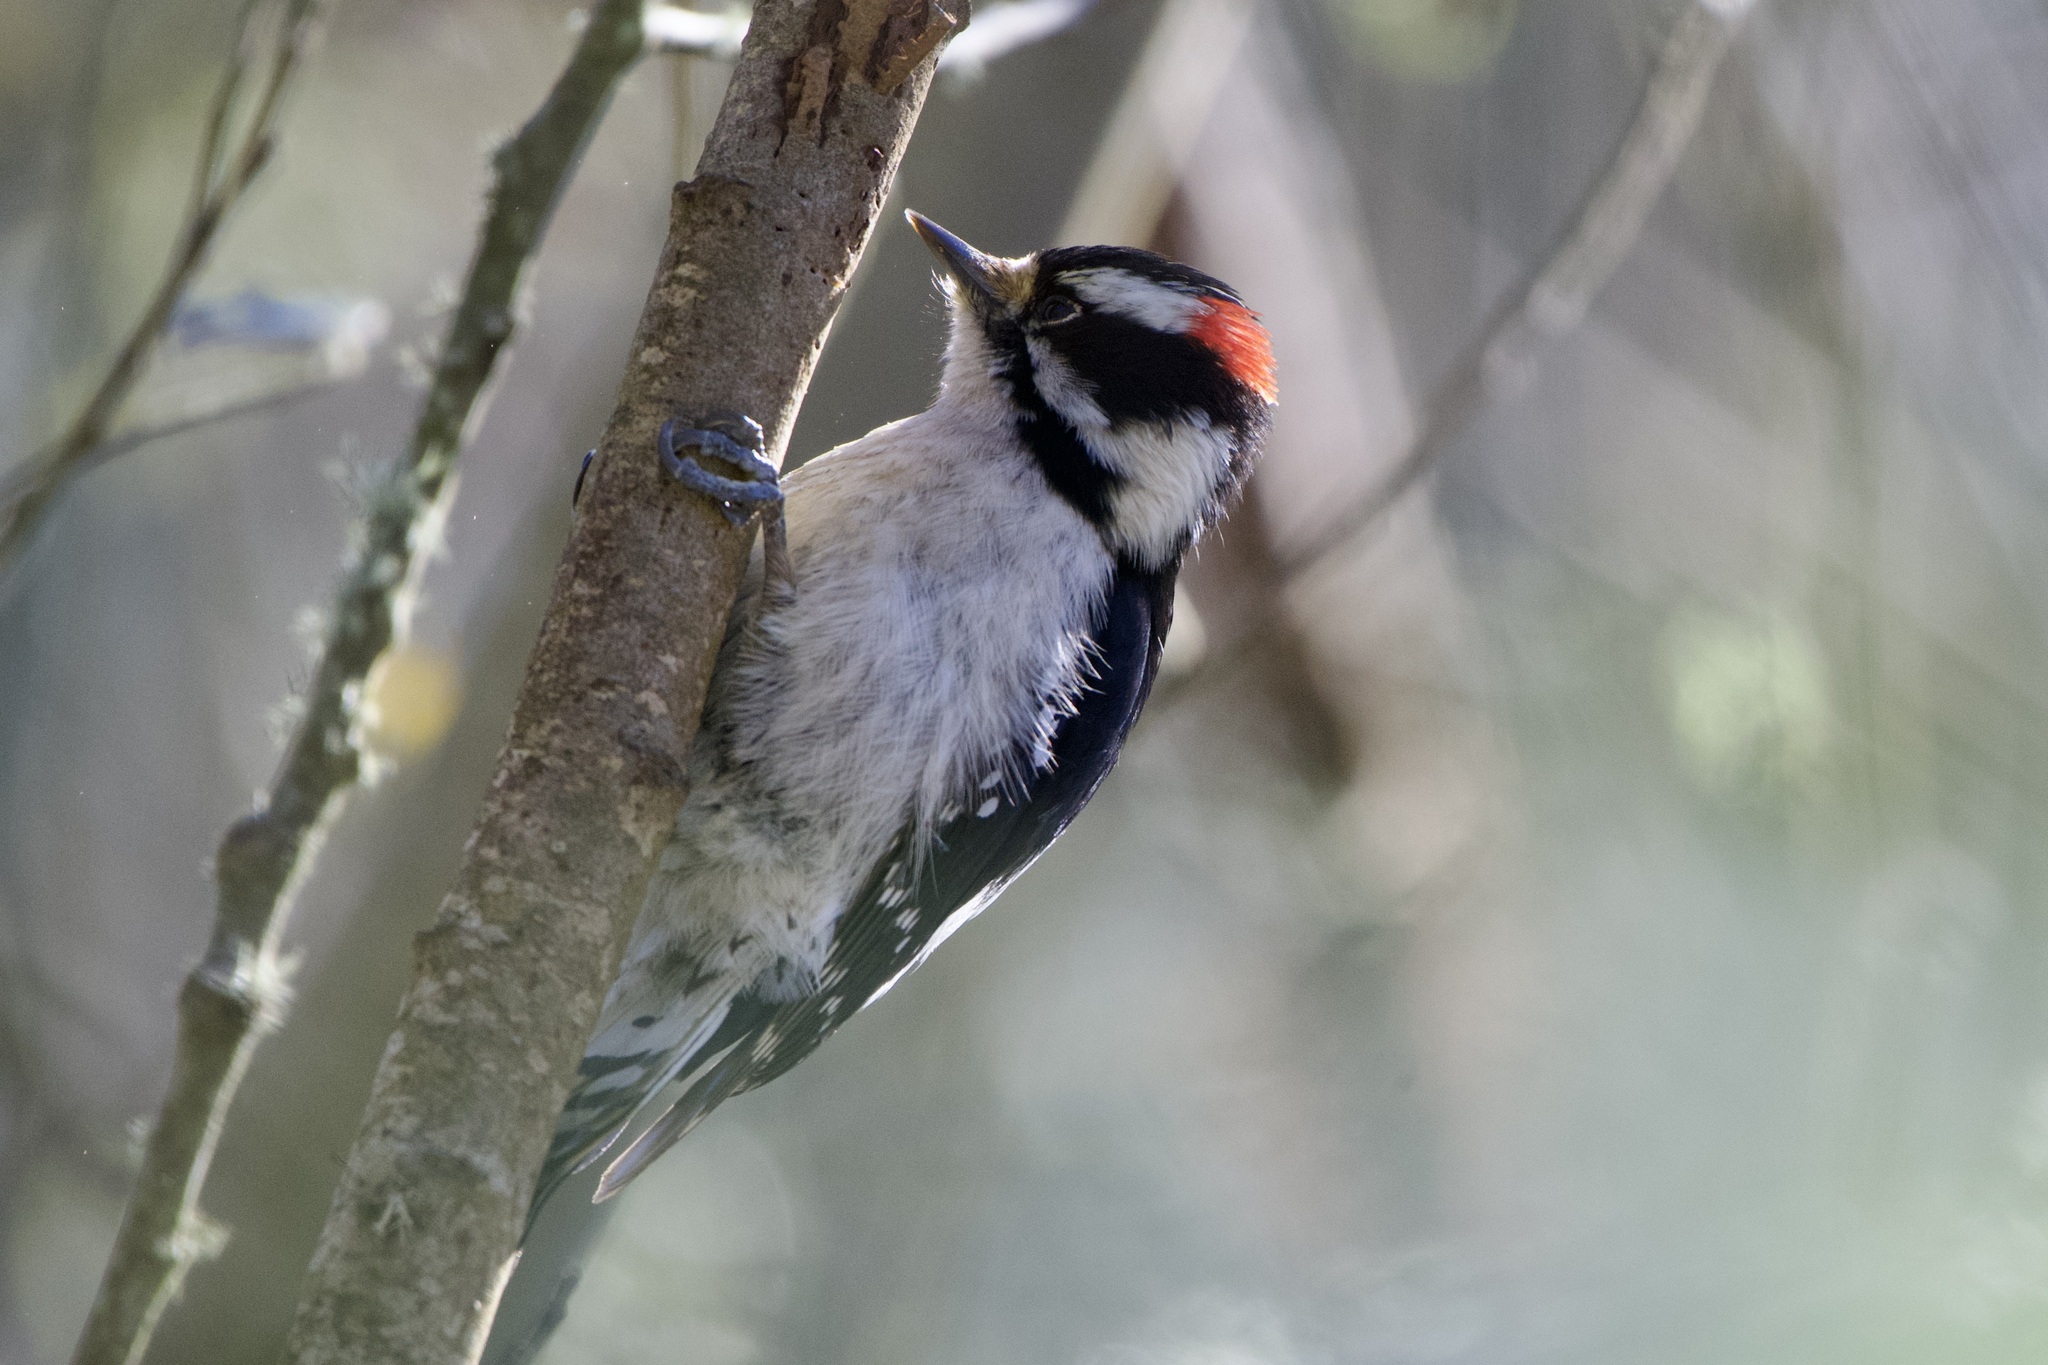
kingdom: Animalia
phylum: Chordata
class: Aves
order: Piciformes
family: Picidae
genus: Dryobates
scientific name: Dryobates pubescens
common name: Downy woodpecker
